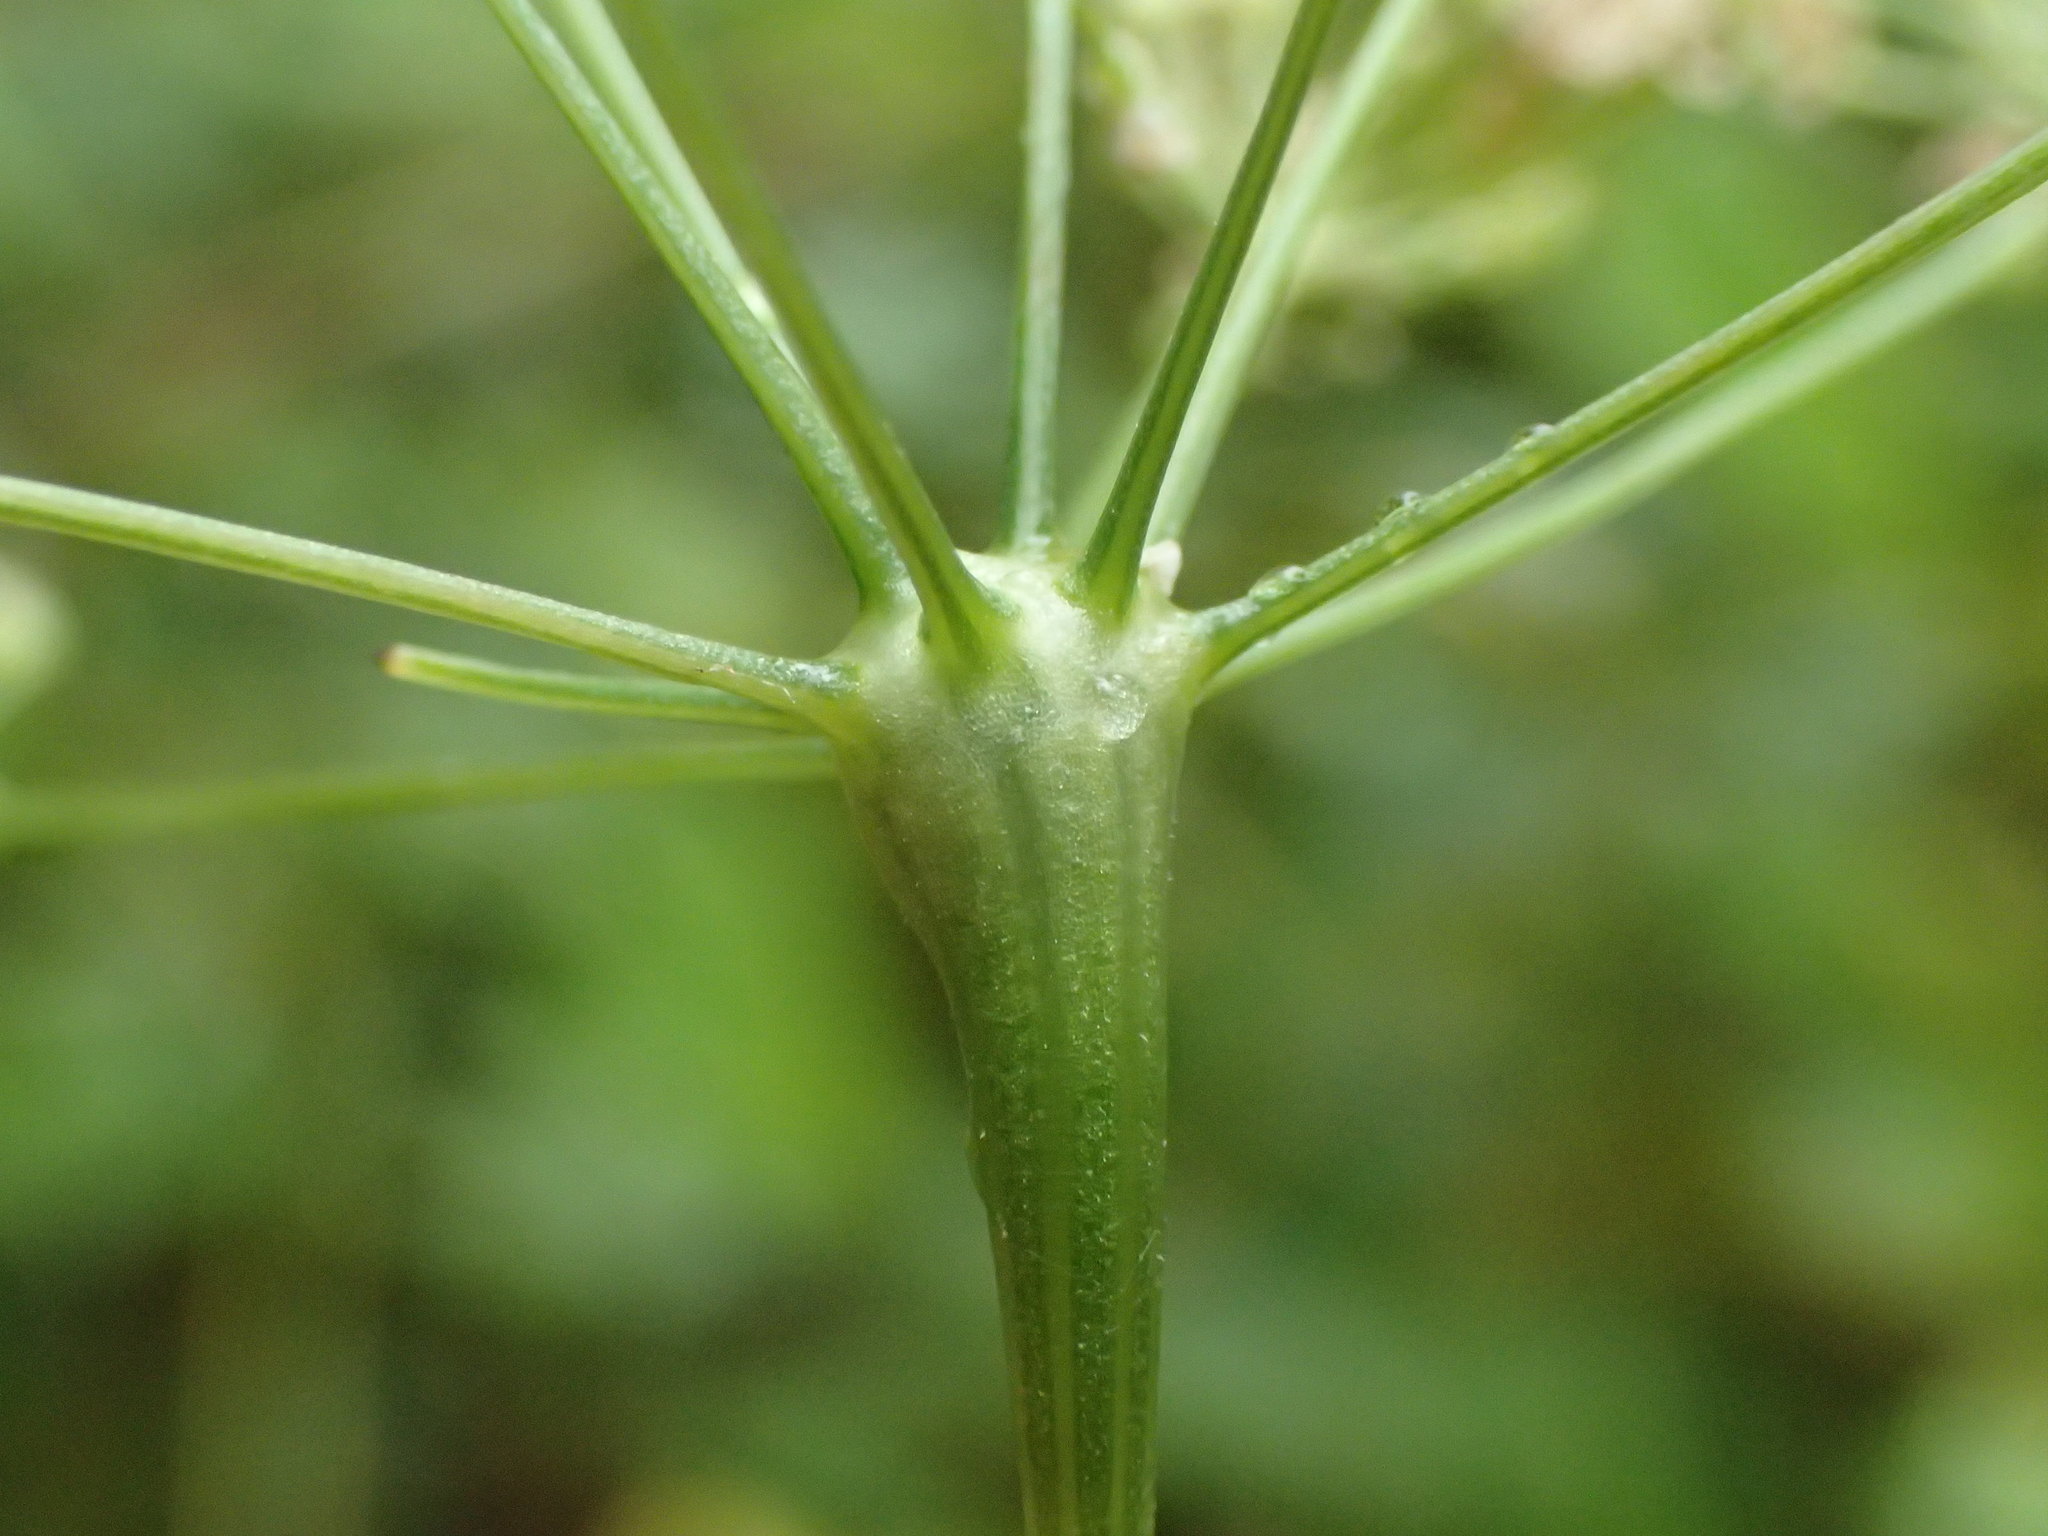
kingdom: Animalia
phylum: Arthropoda
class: Insecta
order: Diptera
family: Cecidomyiidae
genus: Lasioptera
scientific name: Lasioptera carophila
